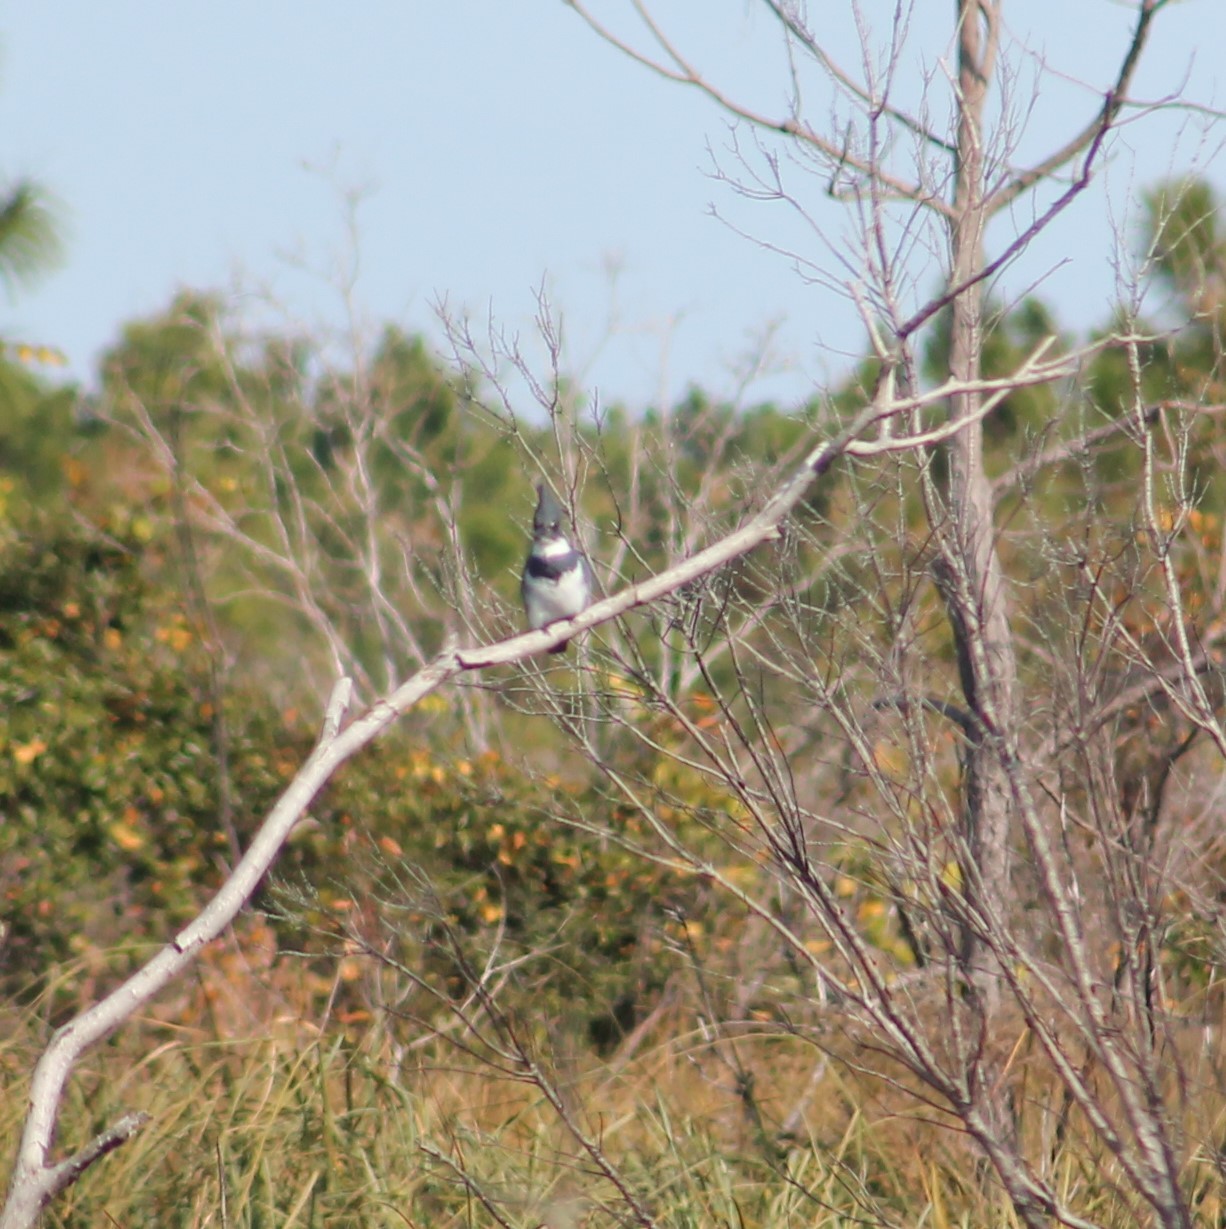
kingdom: Animalia
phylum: Chordata
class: Aves
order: Coraciiformes
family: Alcedinidae
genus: Megaceryle
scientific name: Megaceryle alcyon
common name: Belted kingfisher
